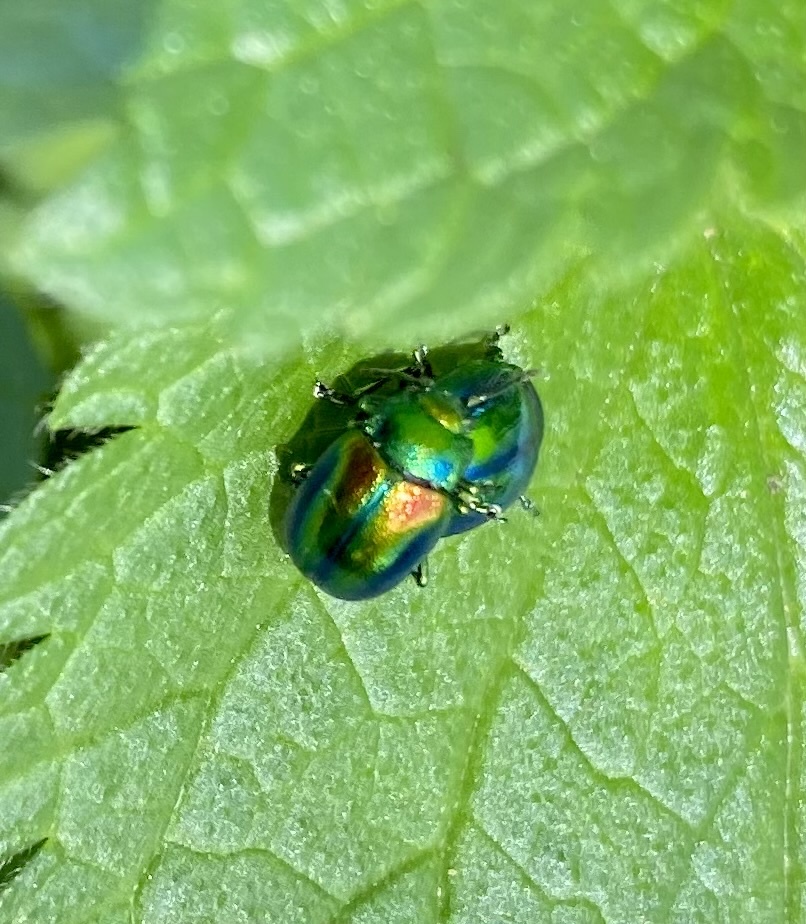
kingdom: Animalia
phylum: Arthropoda
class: Insecta
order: Coleoptera
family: Chrysomelidae
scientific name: Chrysomelidae
